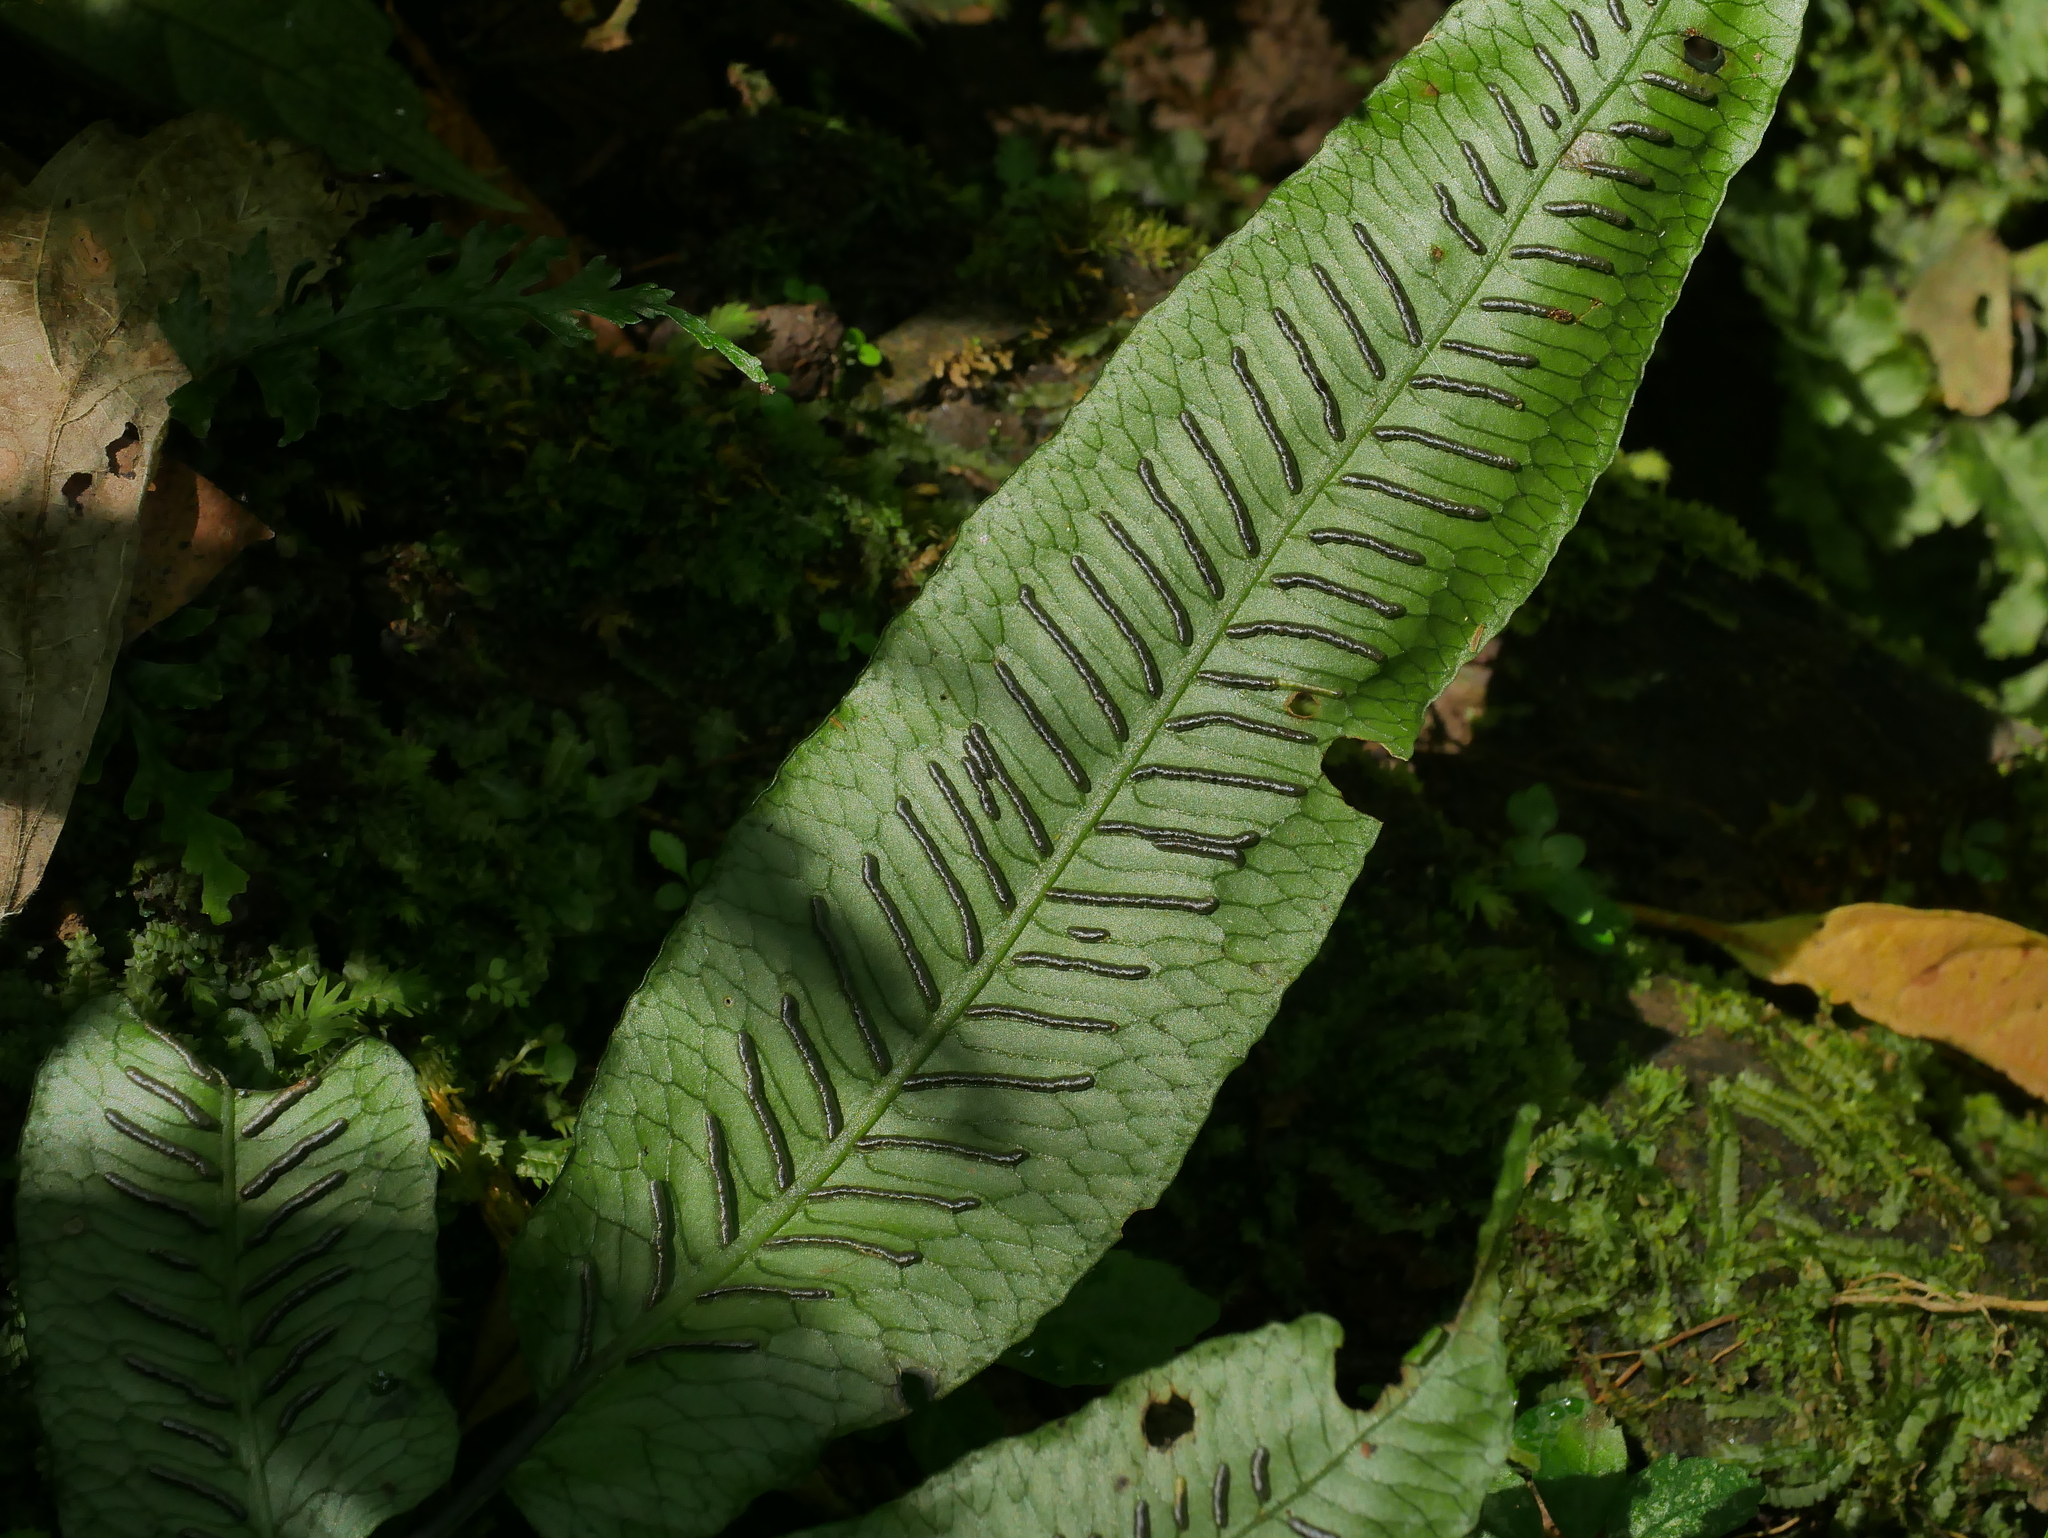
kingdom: Plantae
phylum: Tracheophyta
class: Polypodiopsida
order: Polypodiales
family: Diplaziopsidaceae
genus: Diplaziopsis
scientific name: Diplaziopsis javanica
